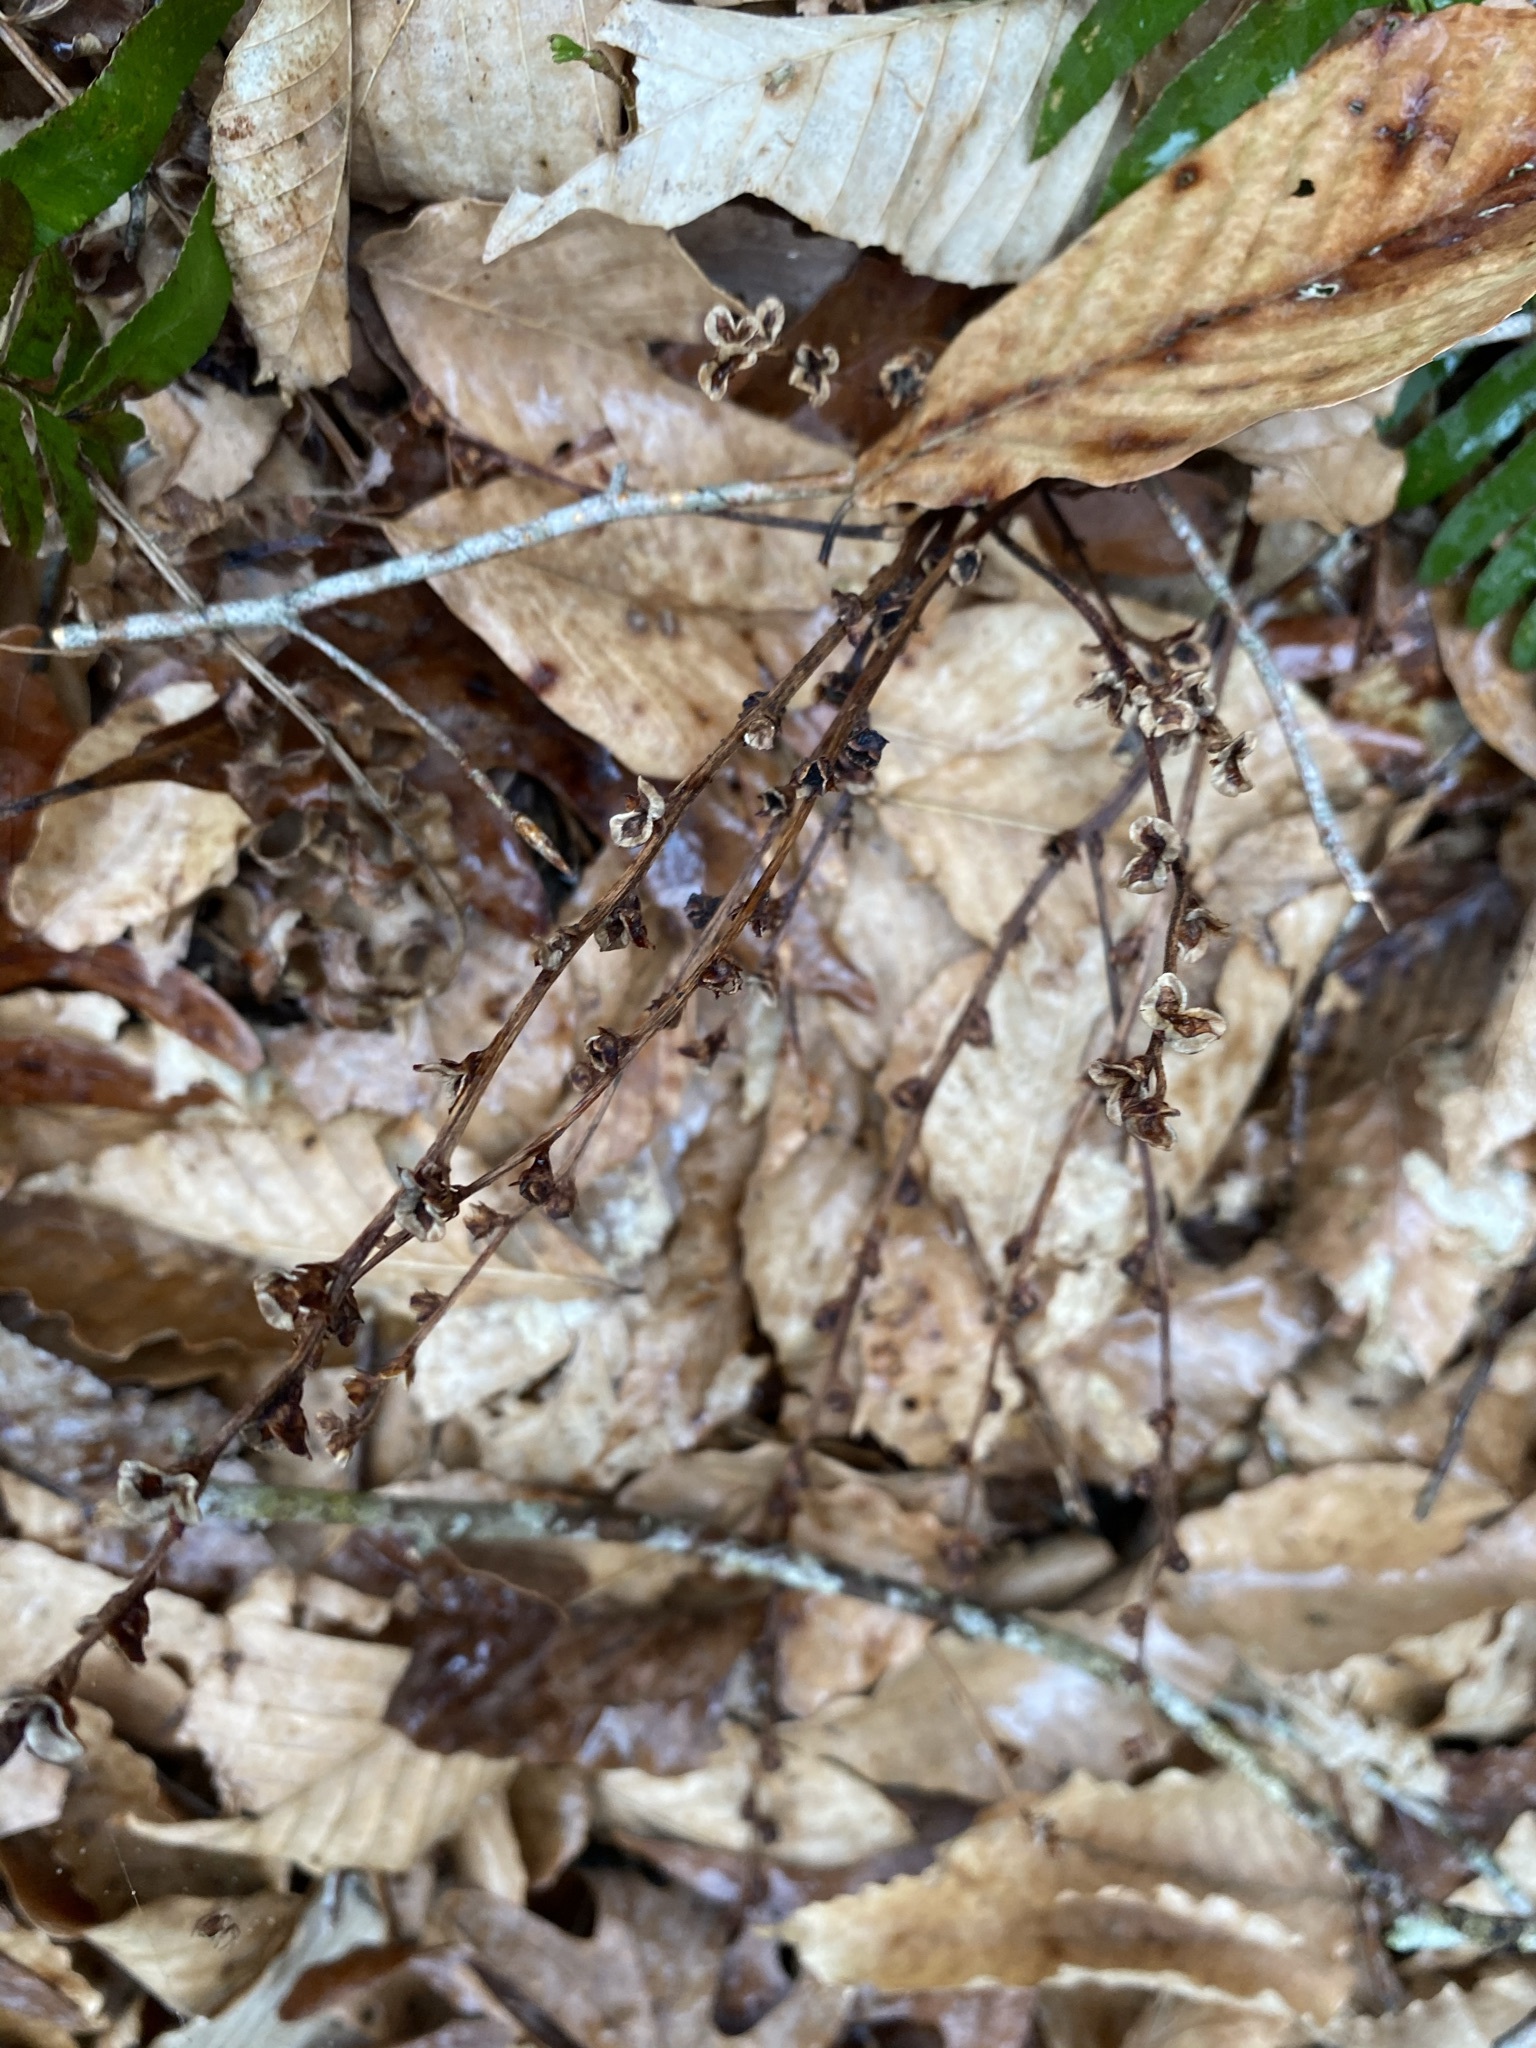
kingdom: Plantae
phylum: Tracheophyta
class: Magnoliopsida
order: Lamiales
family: Orobanchaceae
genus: Epifagus
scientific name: Epifagus virginiana
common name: Beechdrops
